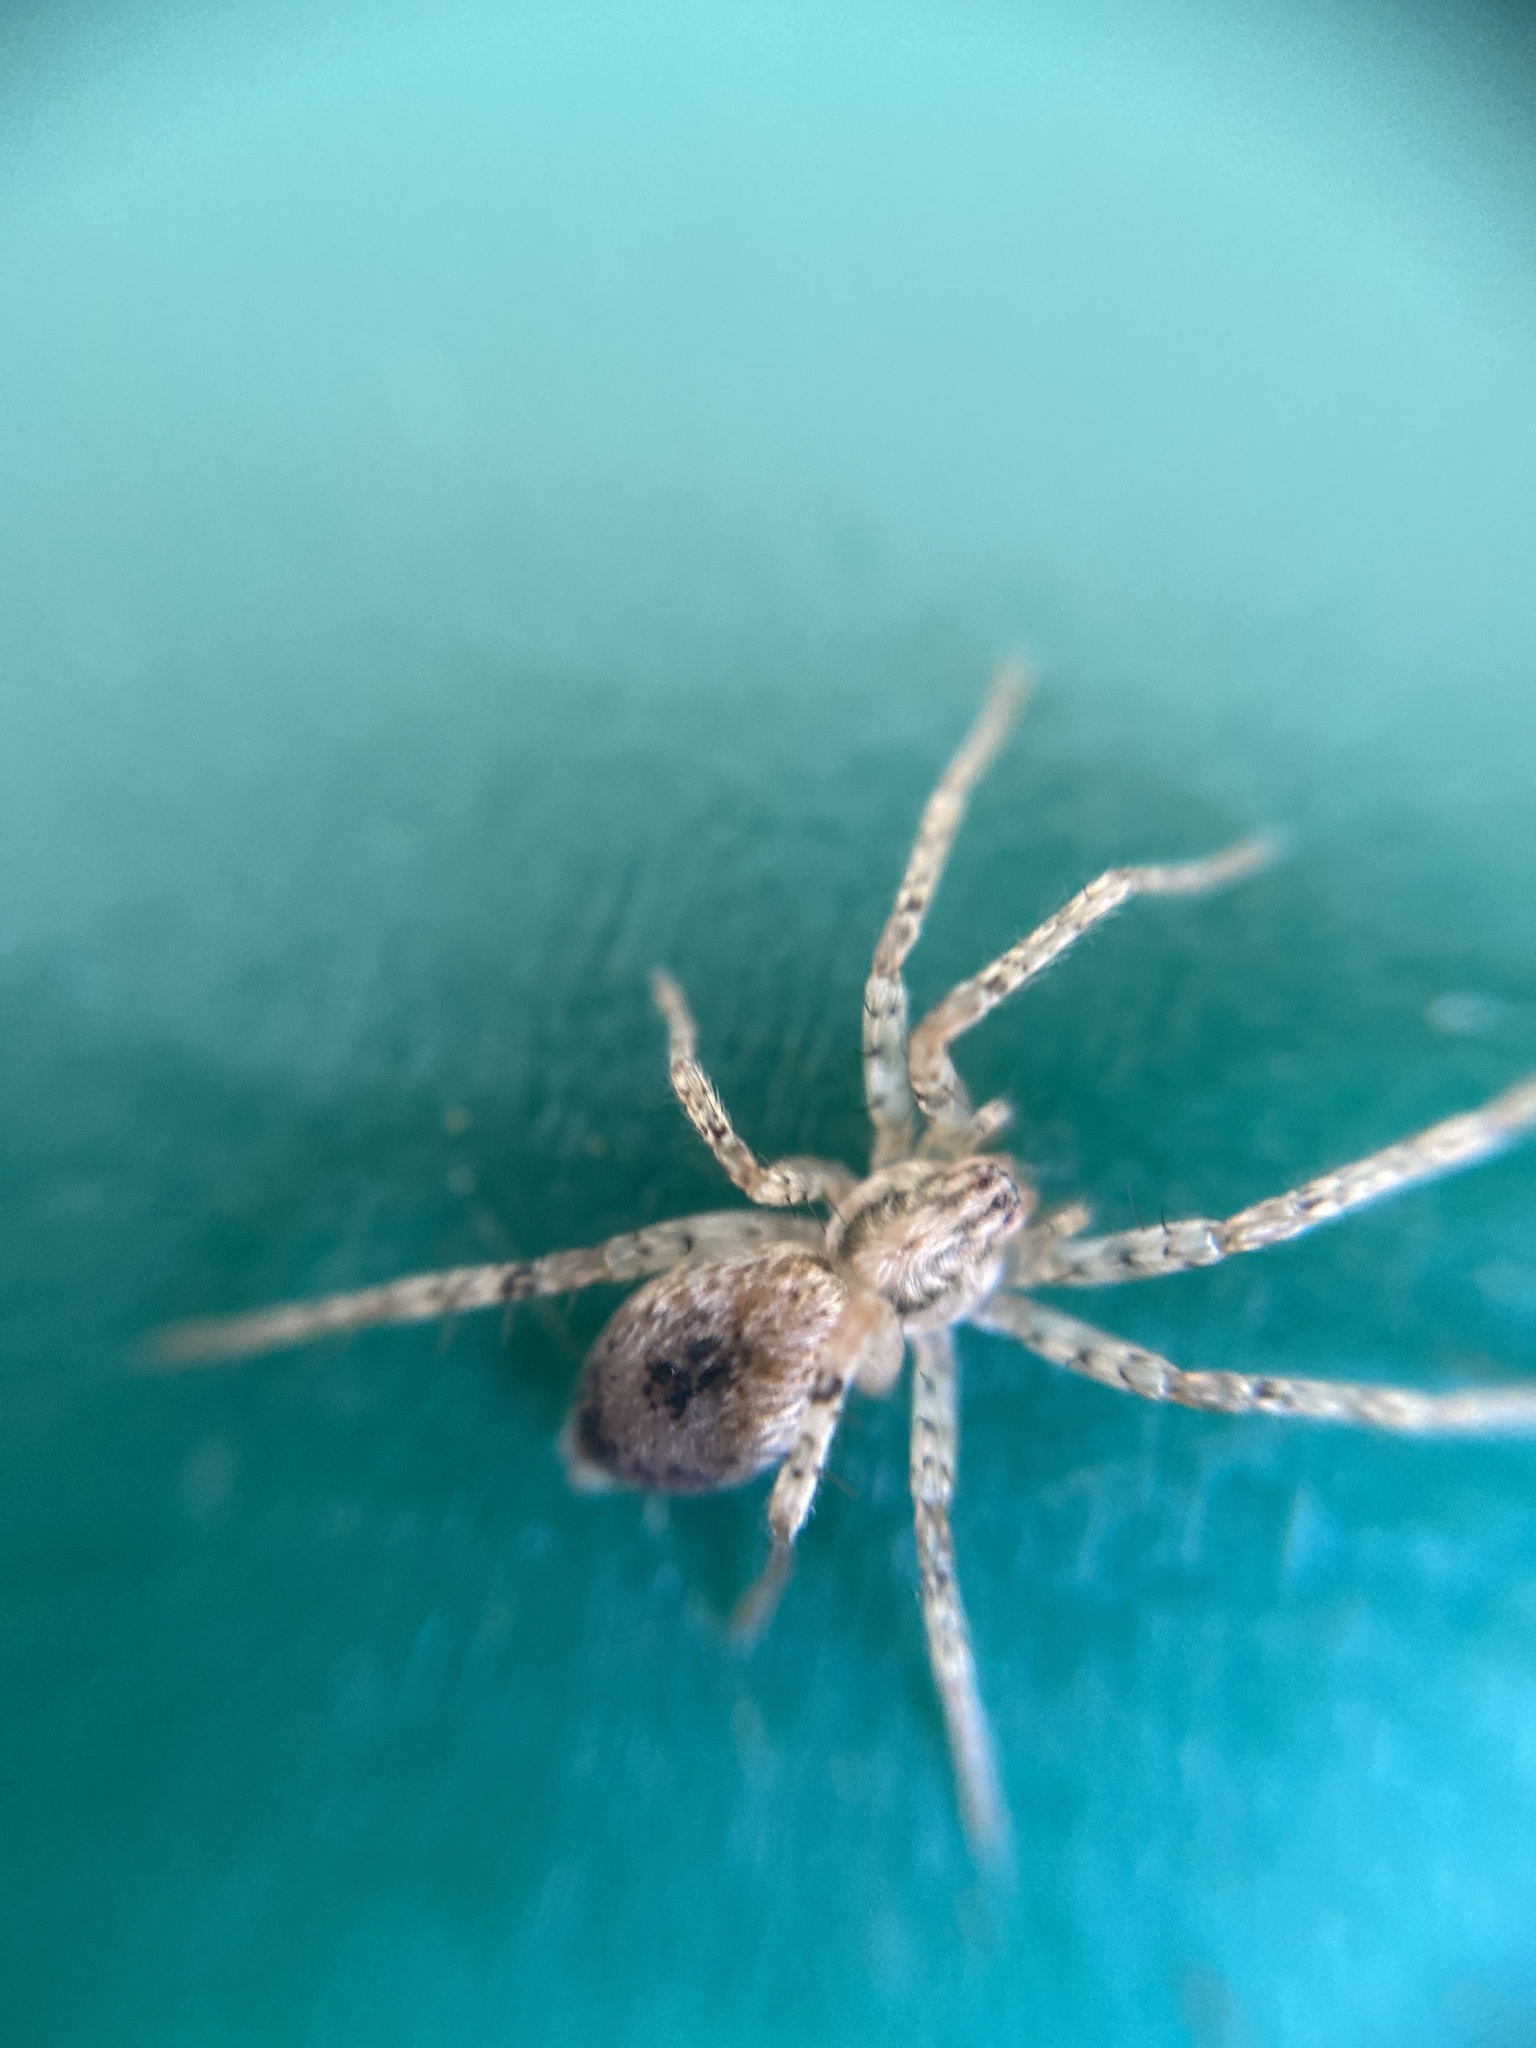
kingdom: Animalia
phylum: Arthropoda
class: Arachnida
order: Araneae
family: Anyphaenidae
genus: Anyphaena
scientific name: Anyphaena accentuata
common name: Buzzing spider
